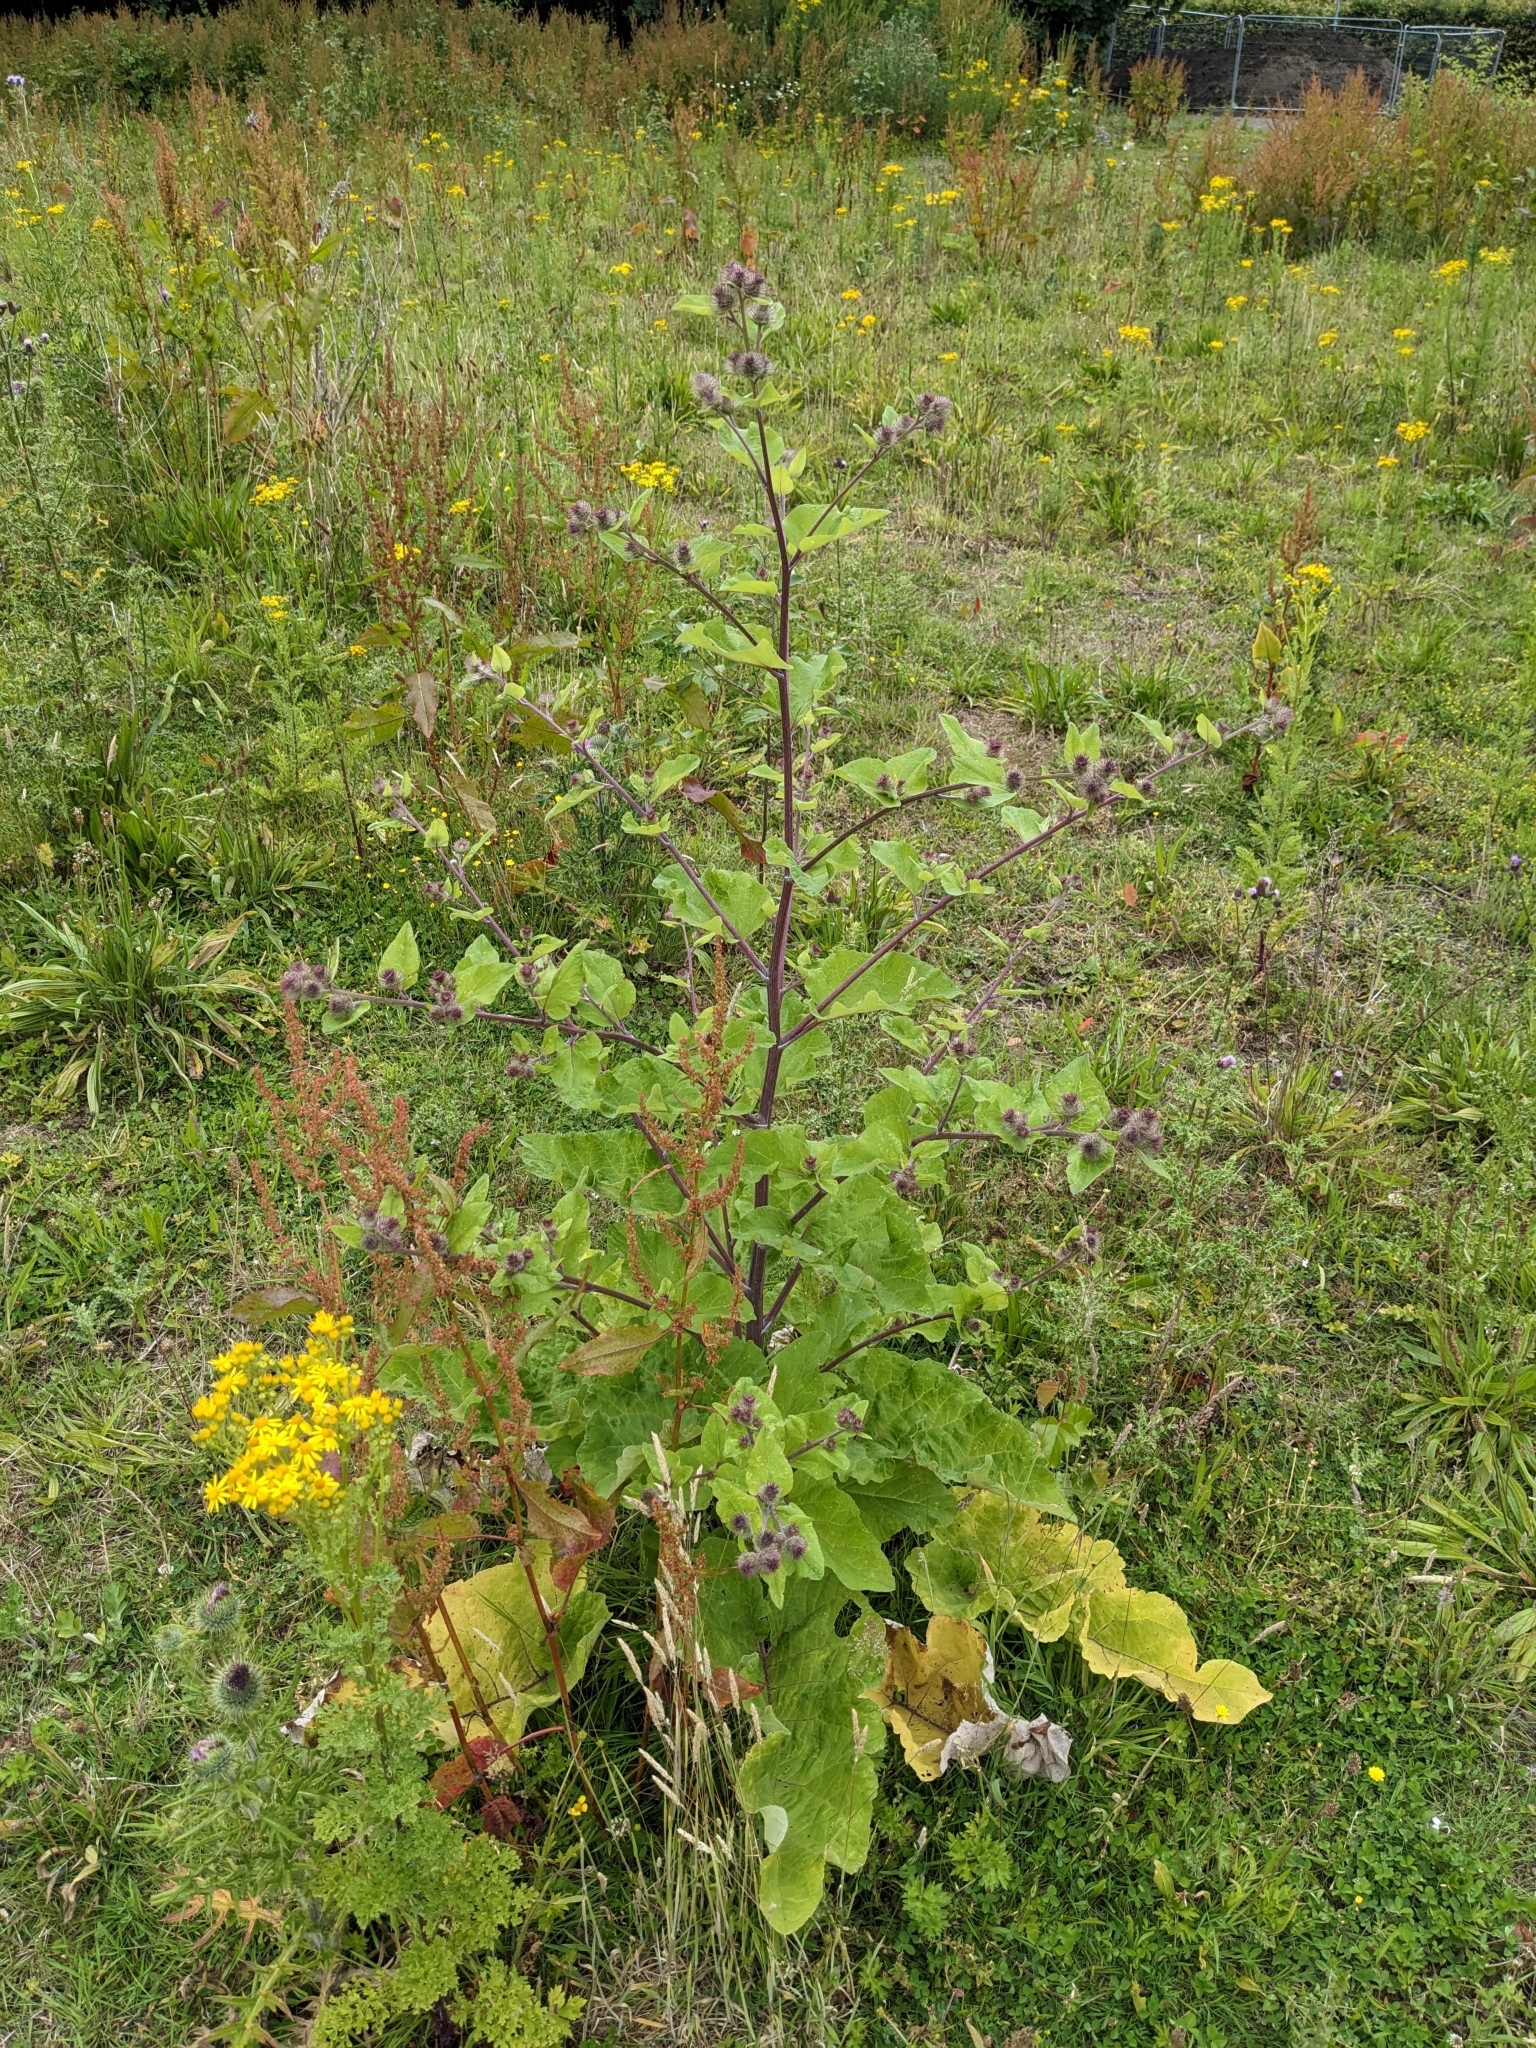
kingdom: Plantae
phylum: Tracheophyta
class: Magnoliopsida
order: Asterales
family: Asteraceae
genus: Arctium
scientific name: Arctium lappa
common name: Greater burdock
